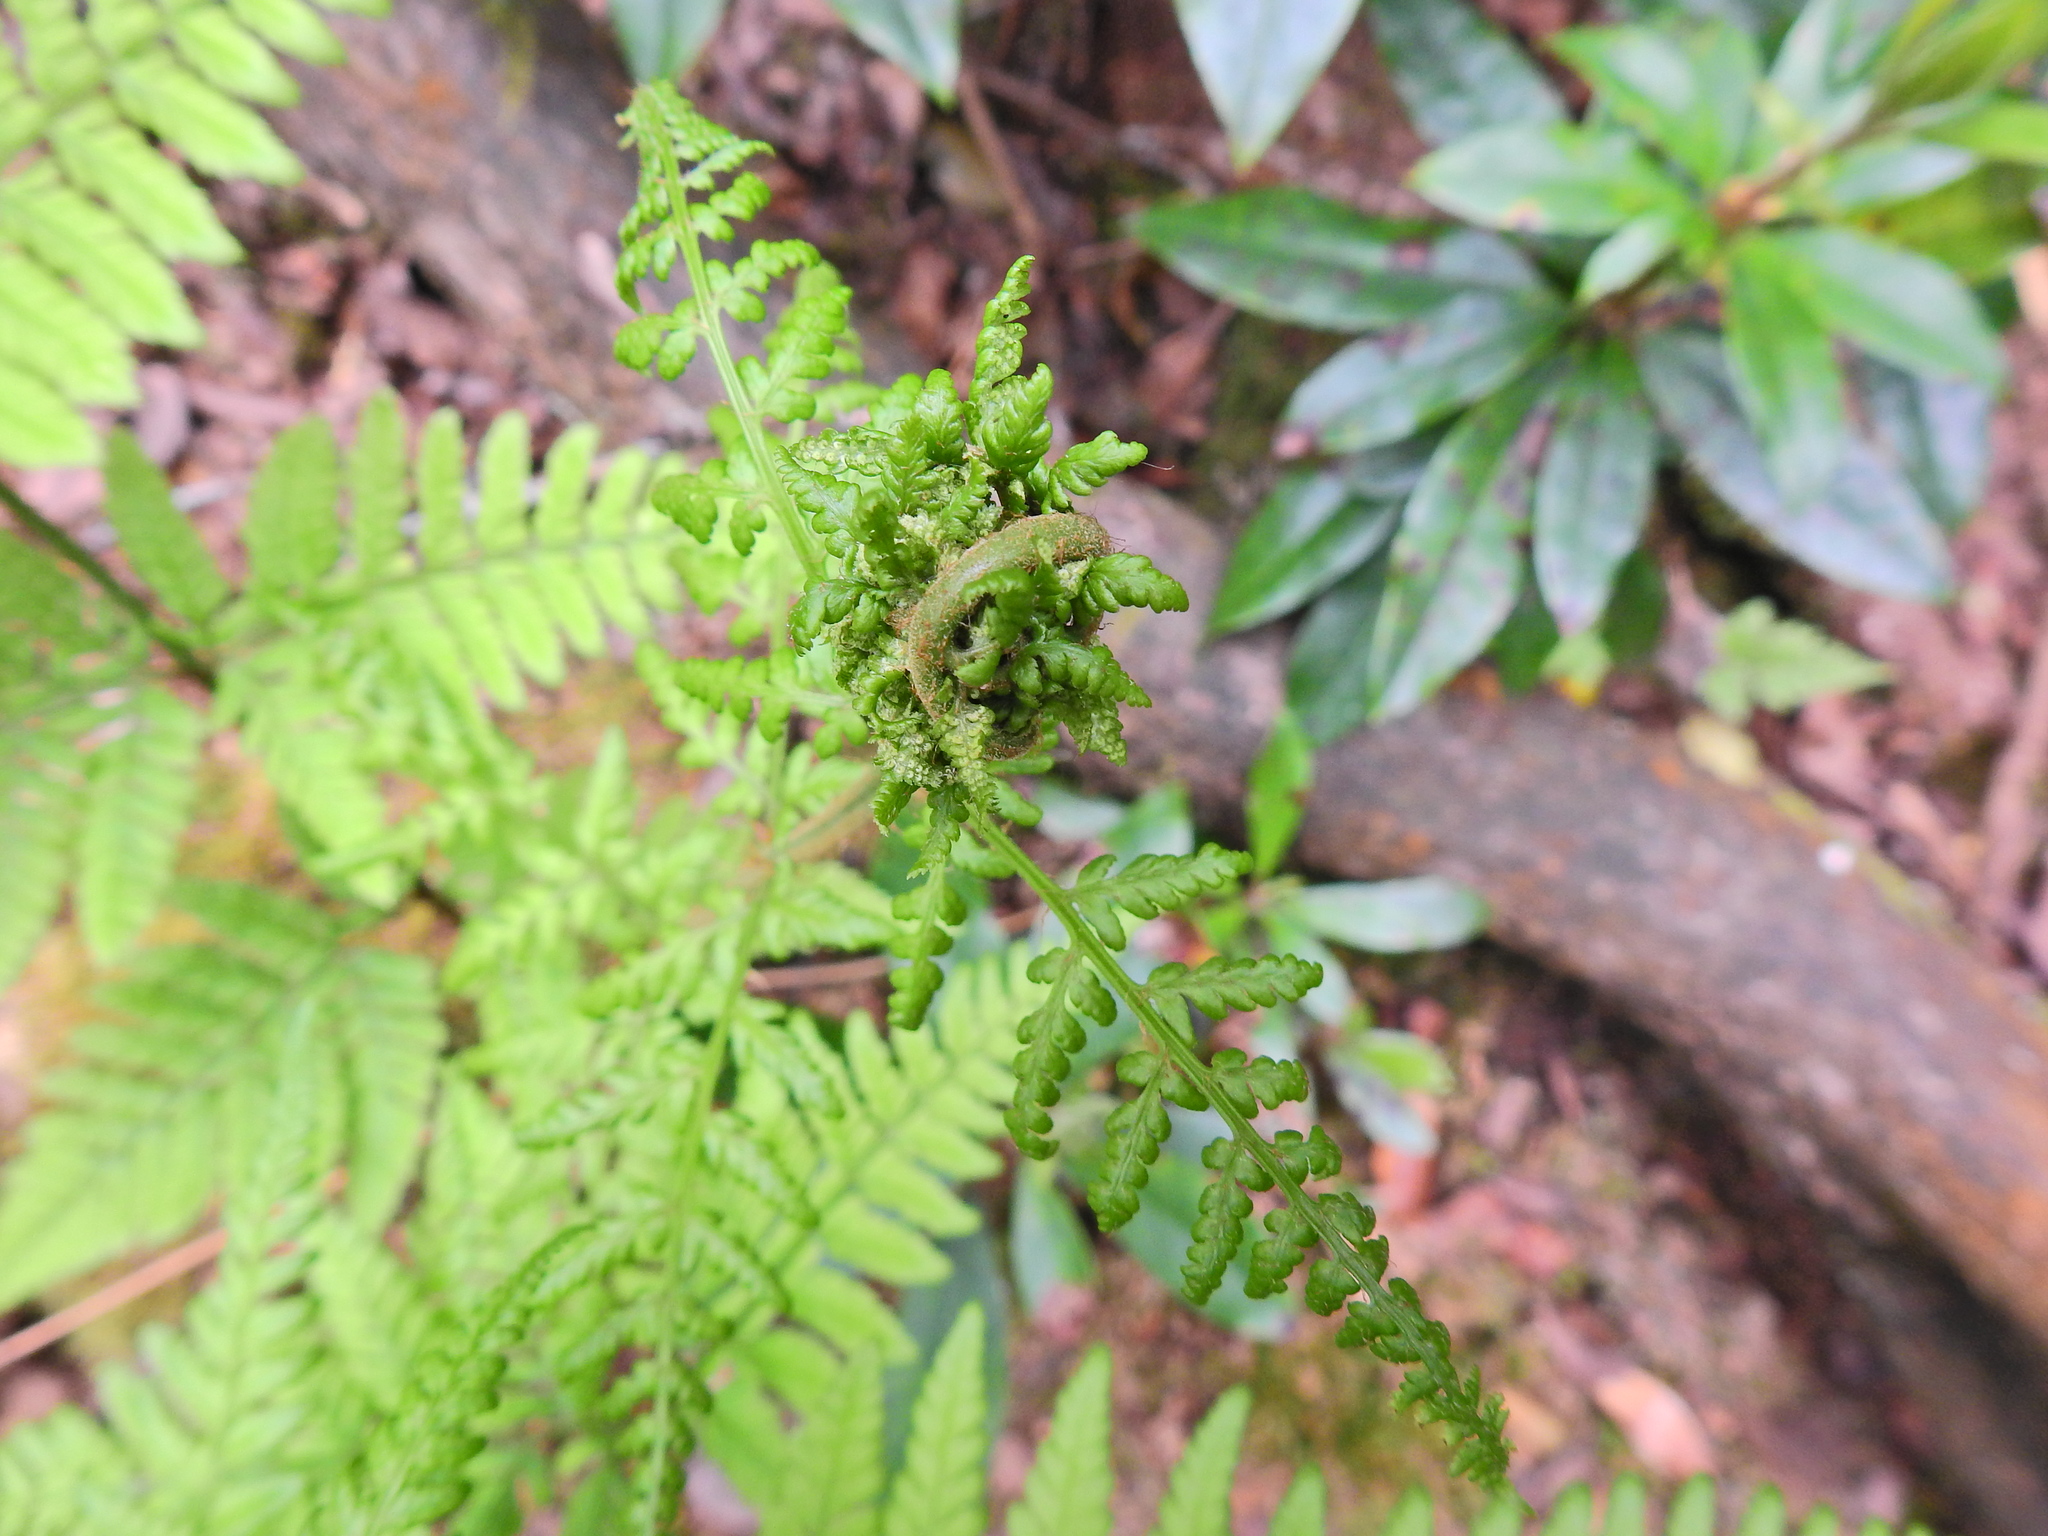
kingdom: Animalia
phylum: Arthropoda
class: Insecta
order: Diptera
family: Anthomyiidae
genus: Chirosia
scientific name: Chirosia betuleti
